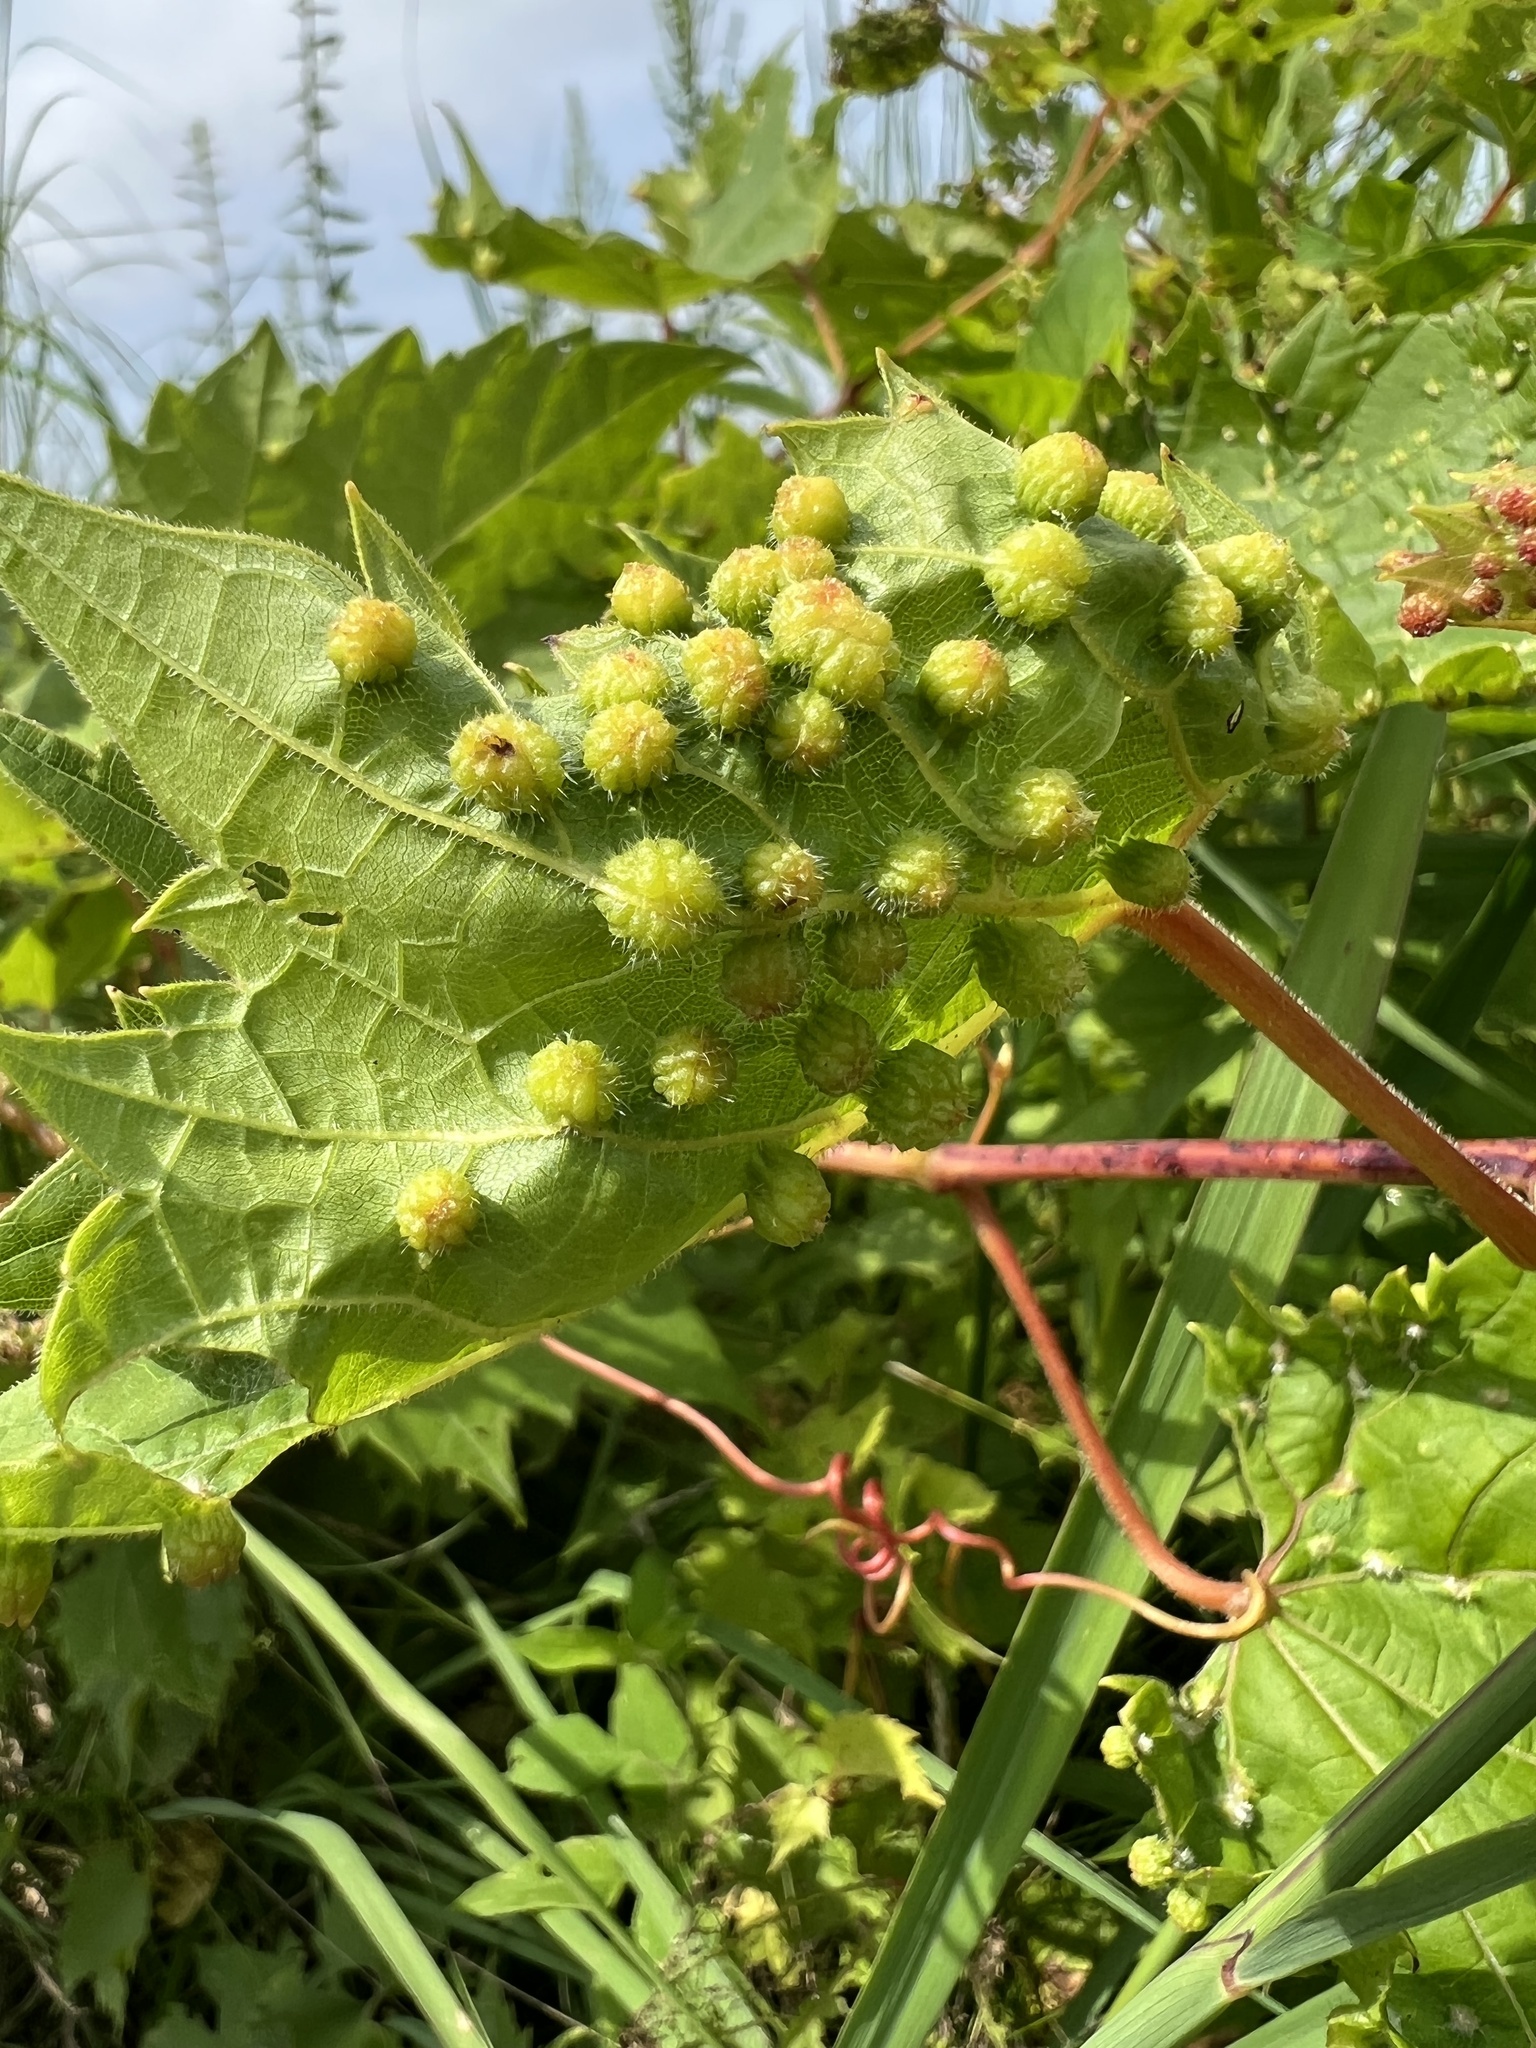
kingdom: Animalia
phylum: Arthropoda
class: Insecta
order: Hemiptera
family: Phylloxeridae
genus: Daktulosphaira
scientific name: Daktulosphaira vitifoliae
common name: Grape phylloxera
